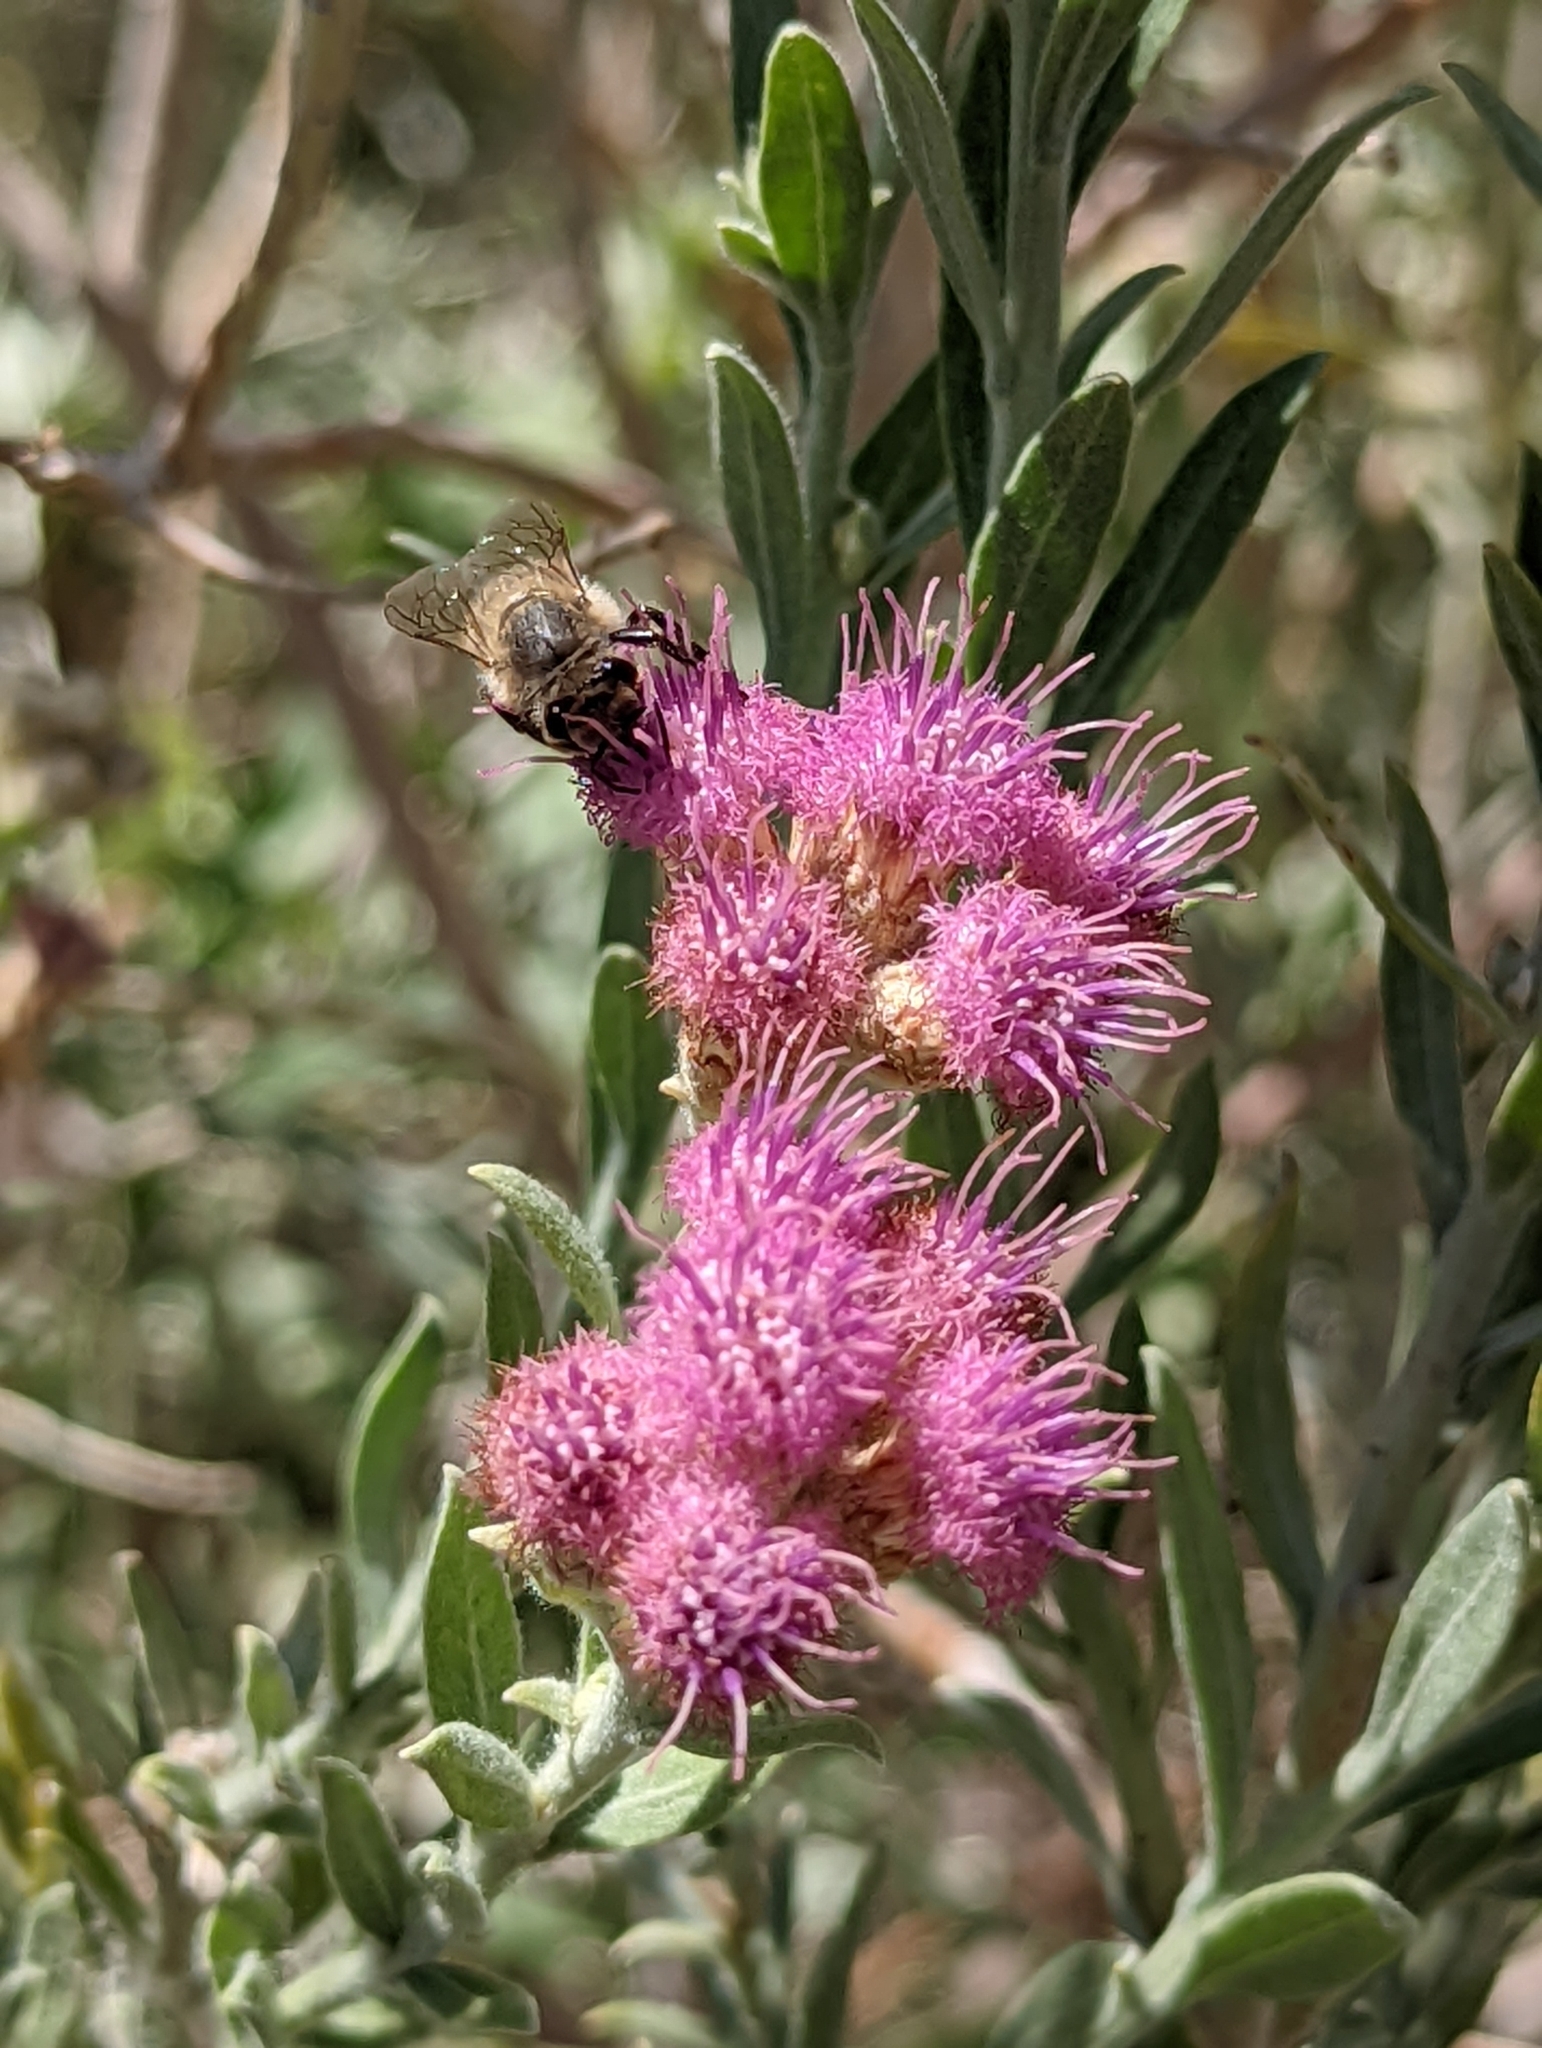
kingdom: Animalia
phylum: Arthropoda
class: Insecta
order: Hymenoptera
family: Apidae
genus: Apis
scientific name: Apis mellifera
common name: Honey bee
